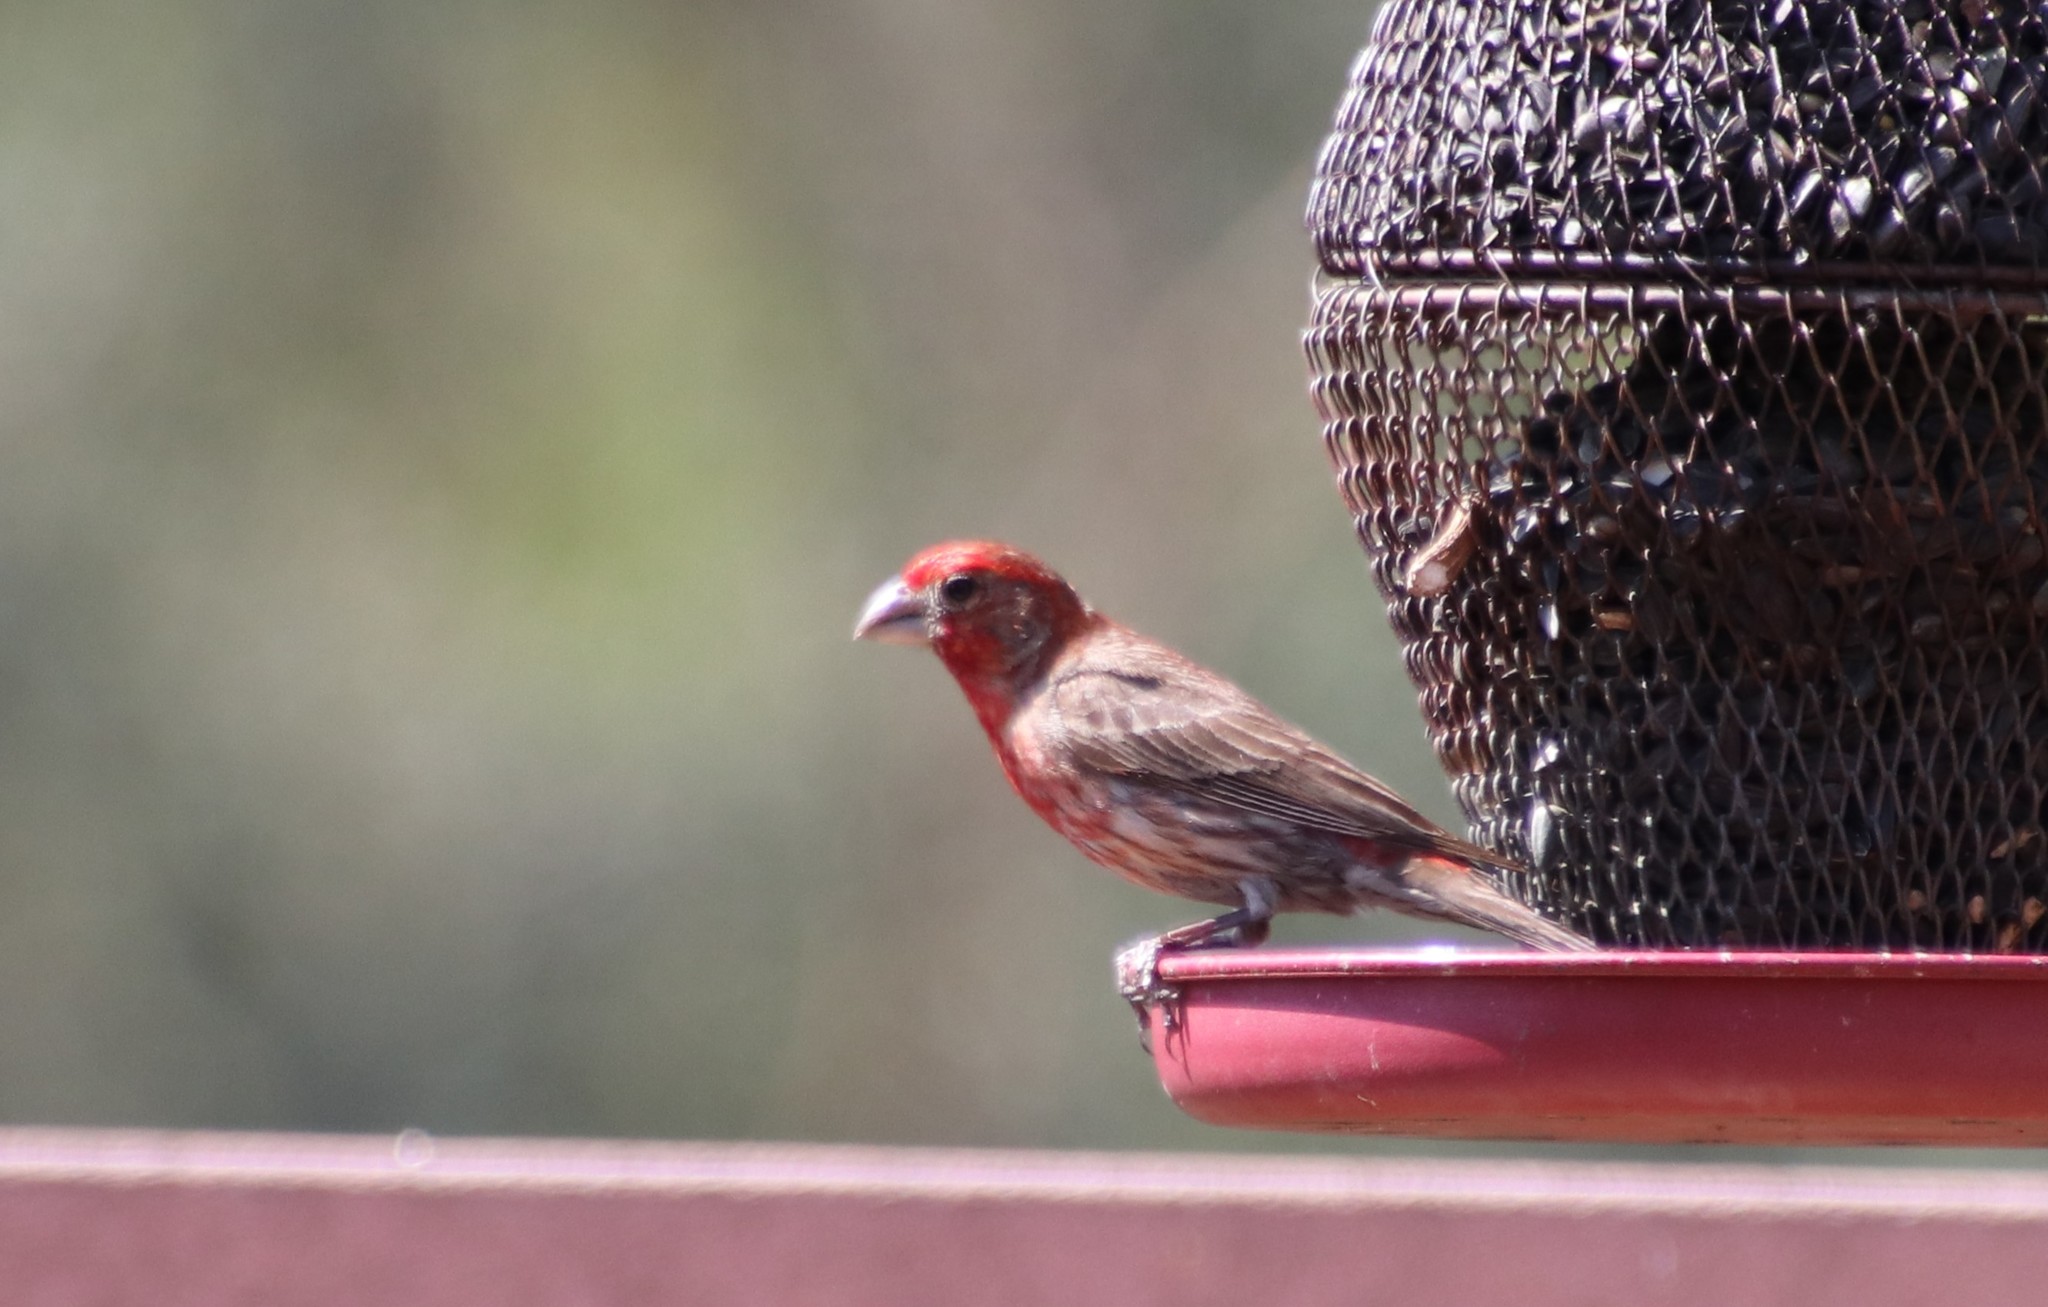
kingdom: Animalia
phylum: Chordata
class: Aves
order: Passeriformes
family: Fringillidae
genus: Haemorhous
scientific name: Haemorhous mexicanus
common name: House finch
